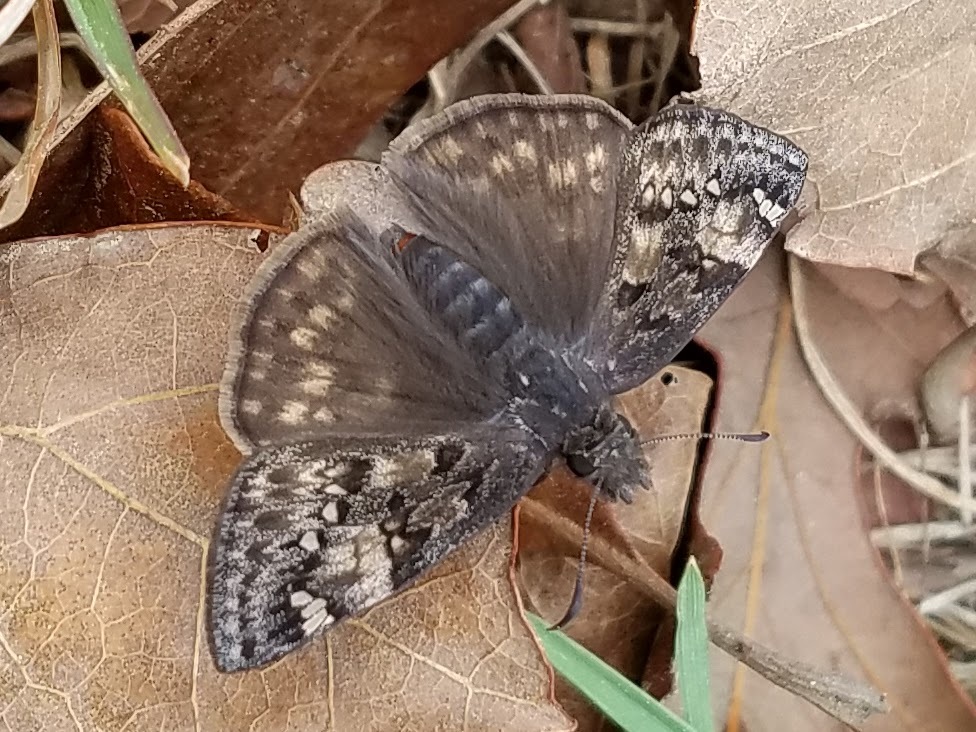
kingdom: Animalia
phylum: Arthropoda
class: Insecta
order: Lepidoptera
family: Hesperiidae
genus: Erynnis
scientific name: Erynnis juvenalis
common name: Juvenal's duskywing
